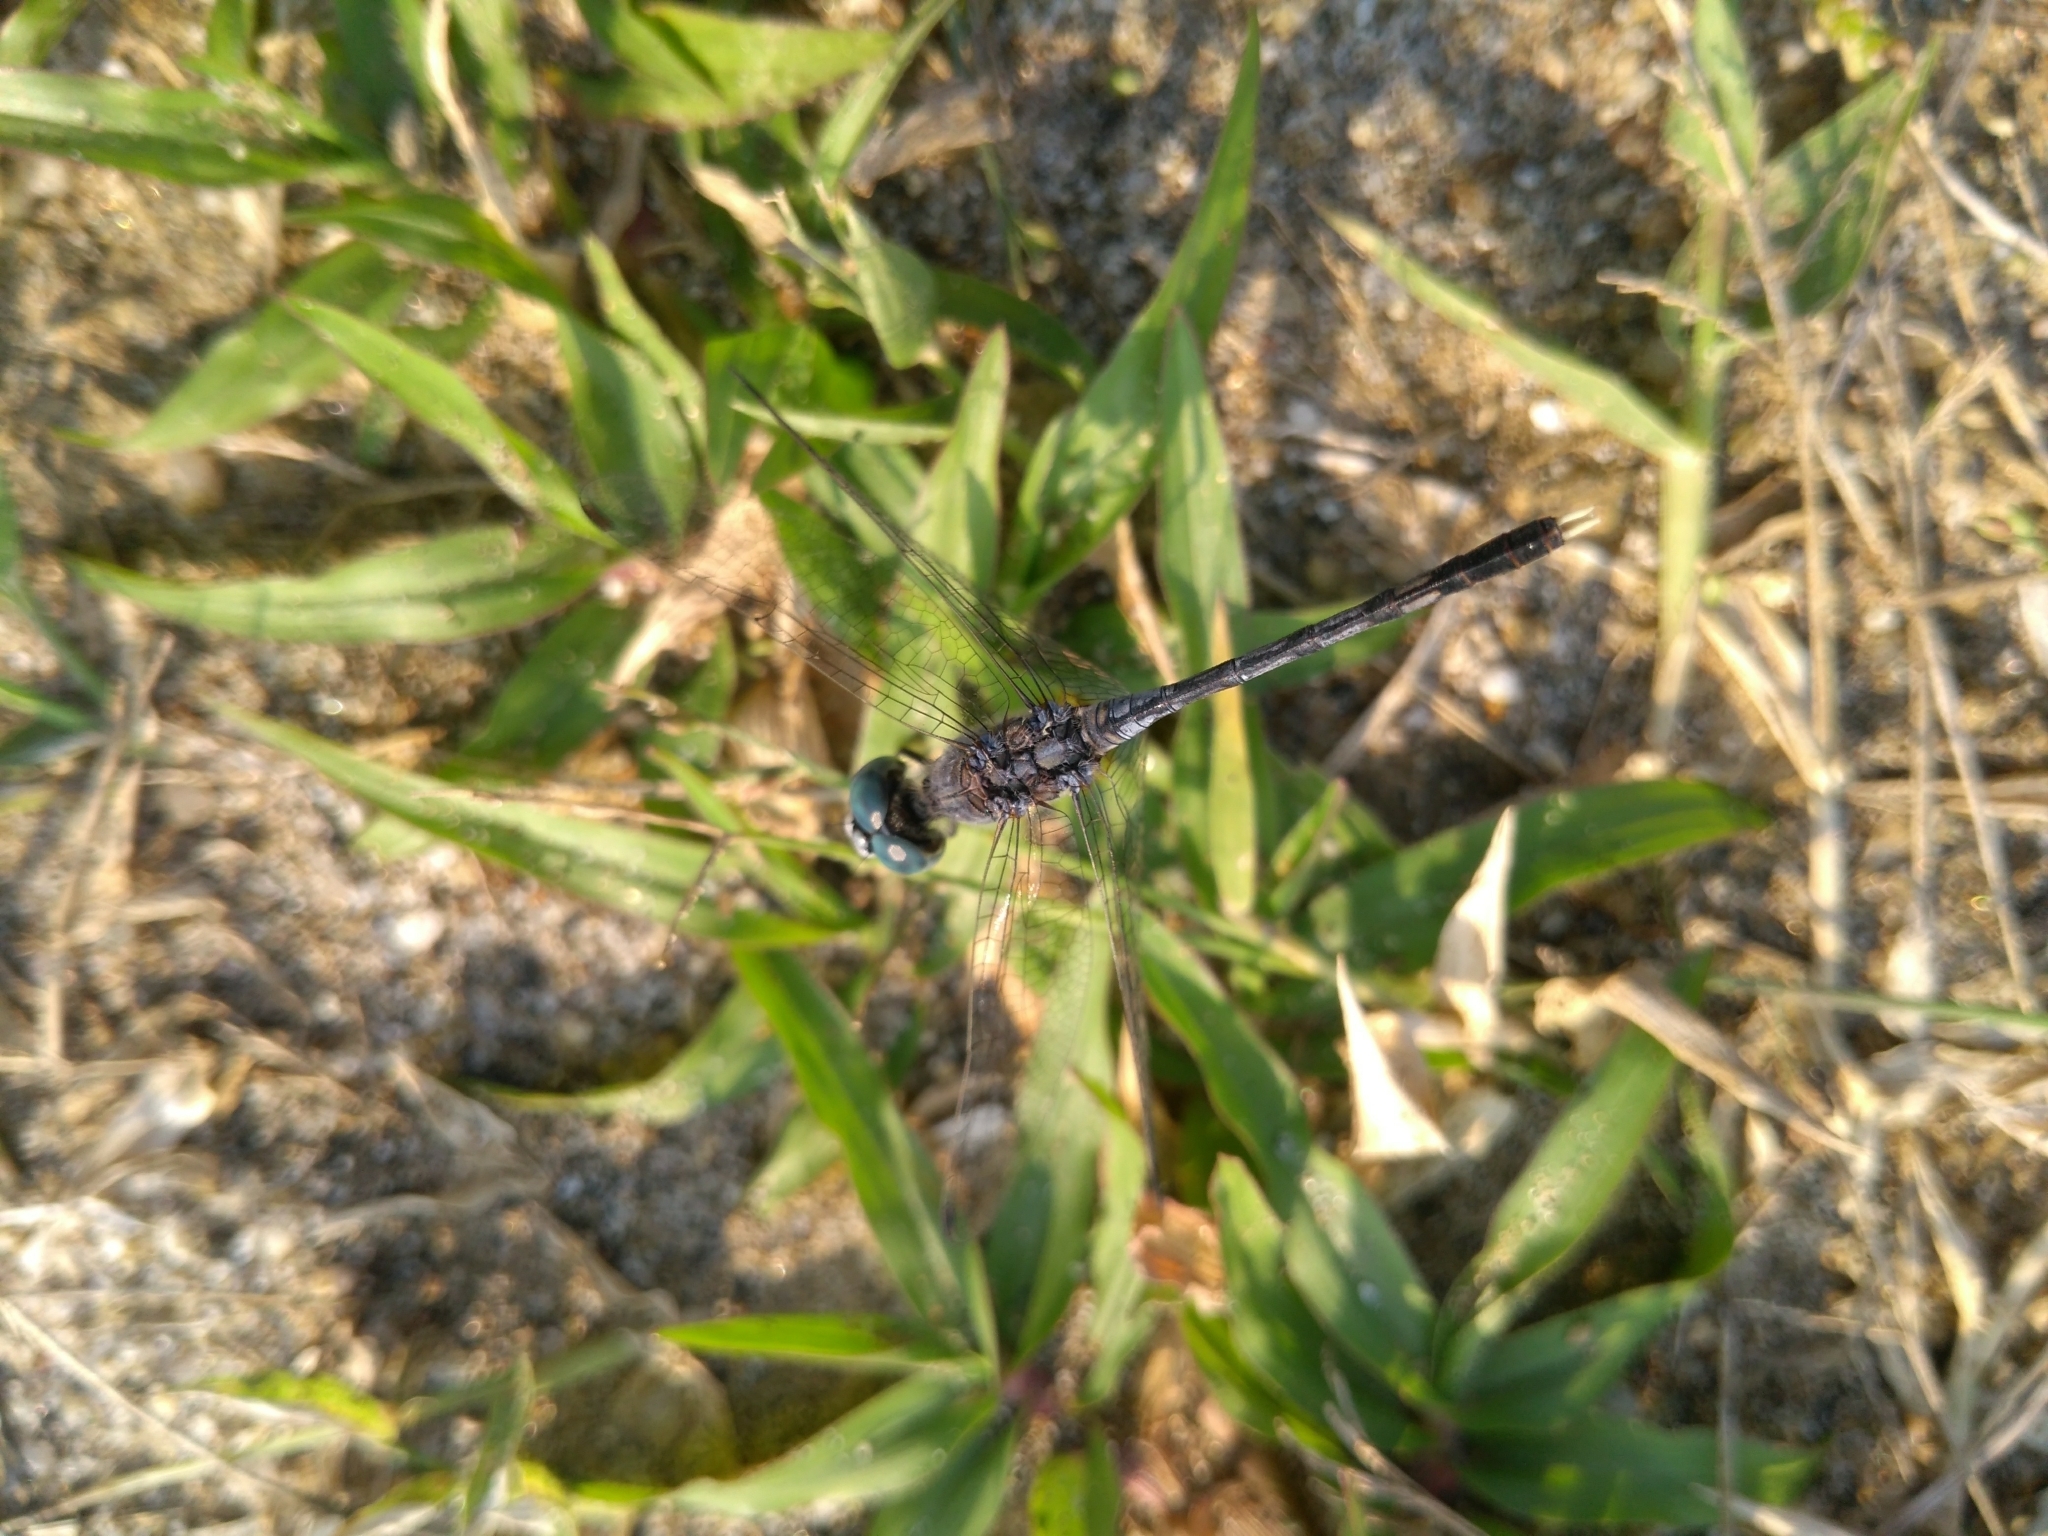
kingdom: Animalia
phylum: Arthropoda
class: Insecta
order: Odonata
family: Libellulidae
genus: Diplacodes
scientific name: Diplacodes trivialis
